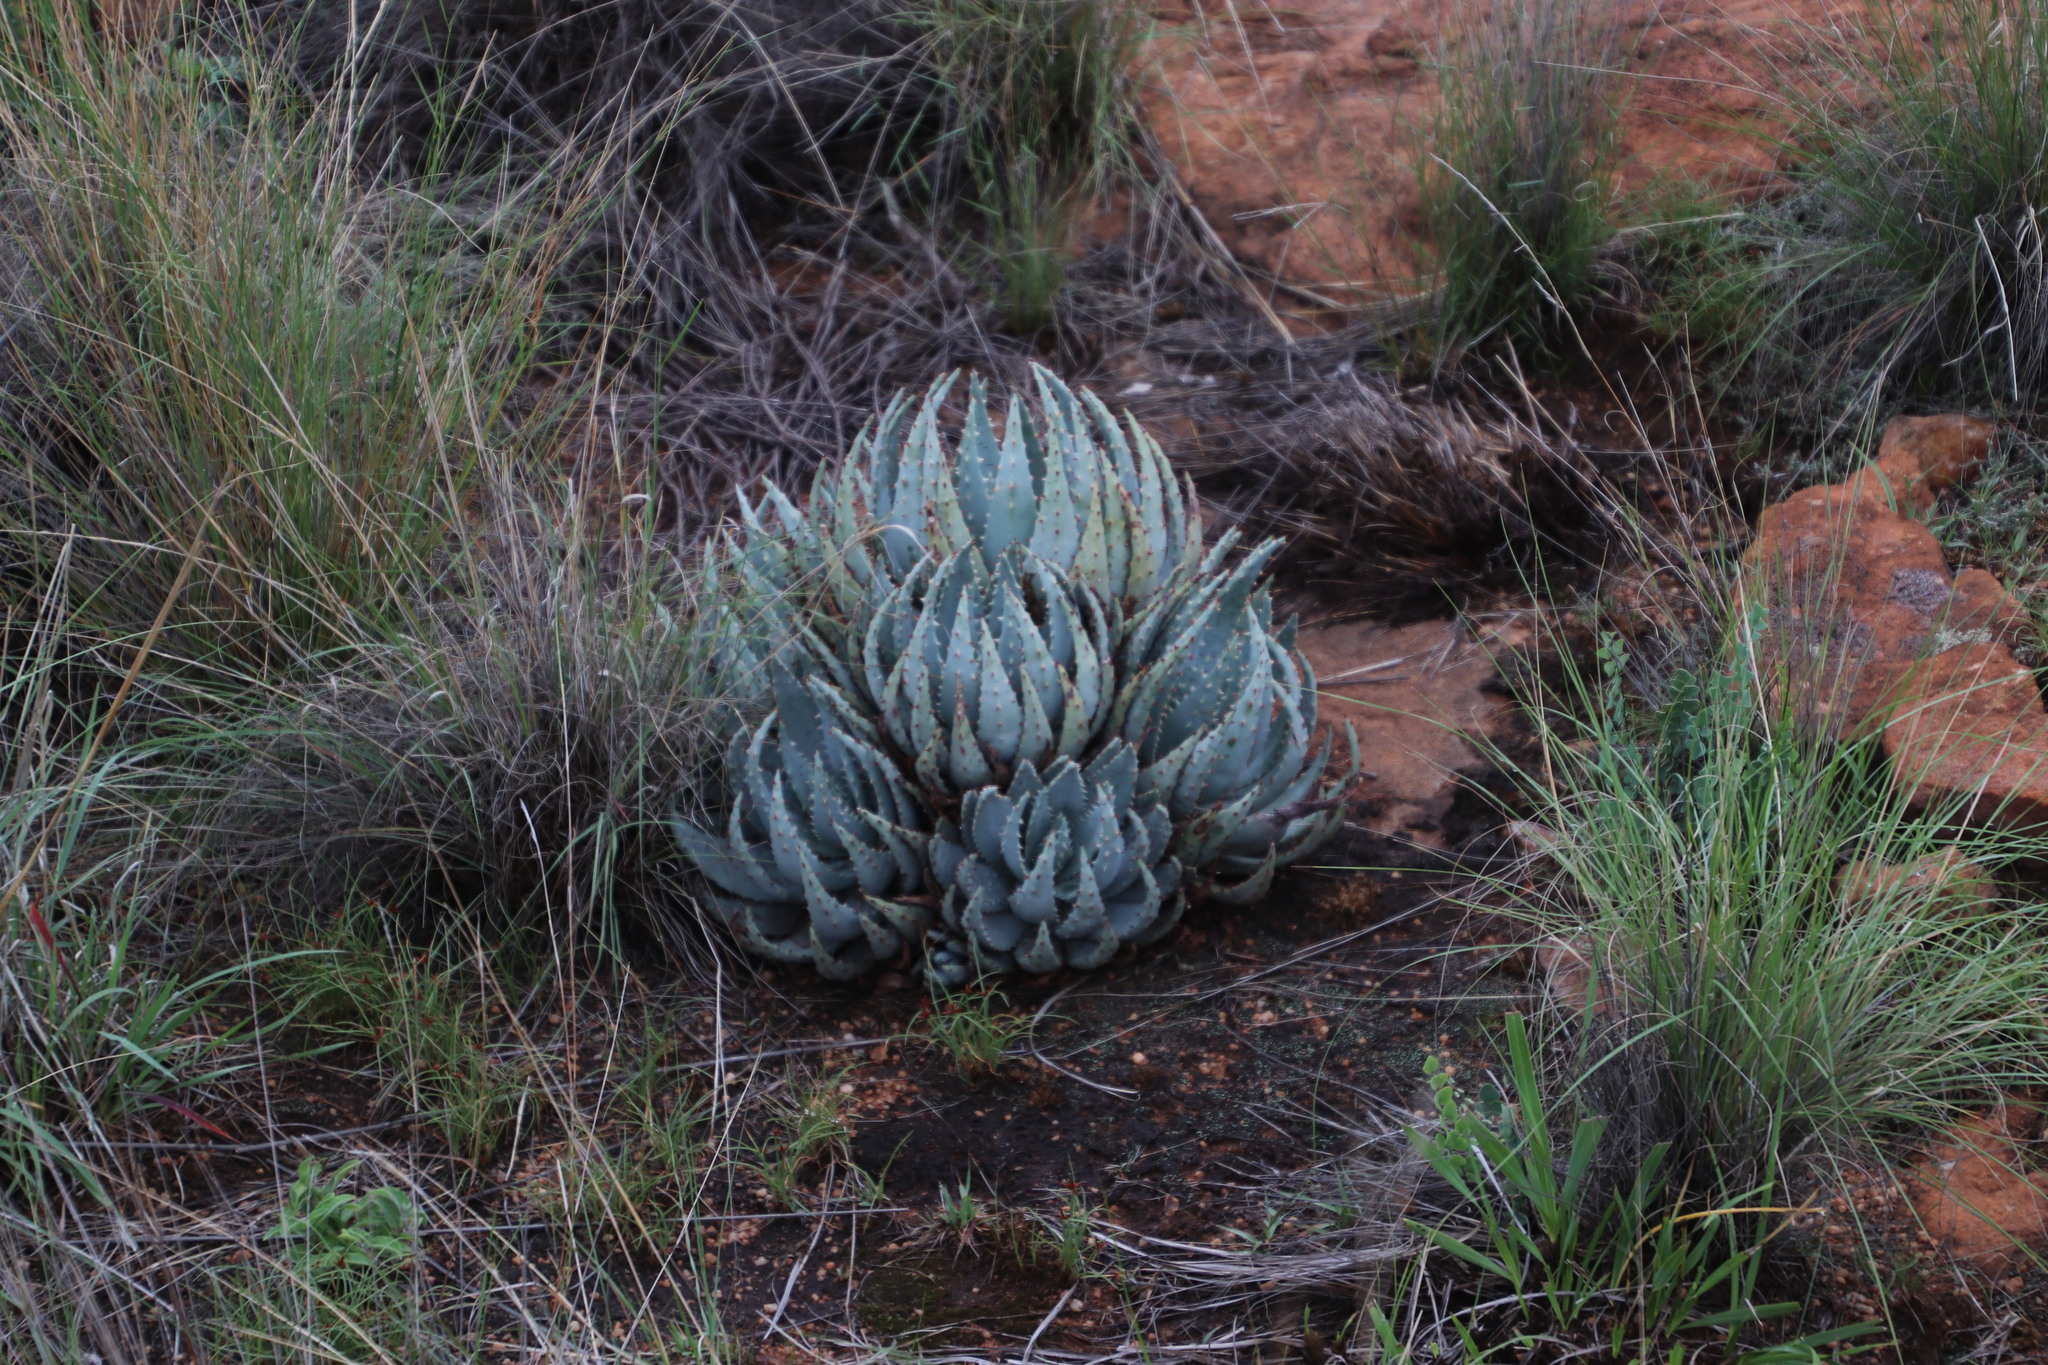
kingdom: Plantae
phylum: Tracheophyta
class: Liliopsida
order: Asparagales
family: Asphodelaceae
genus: Aloe
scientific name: Aloe peglerae
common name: Red-hot poker
